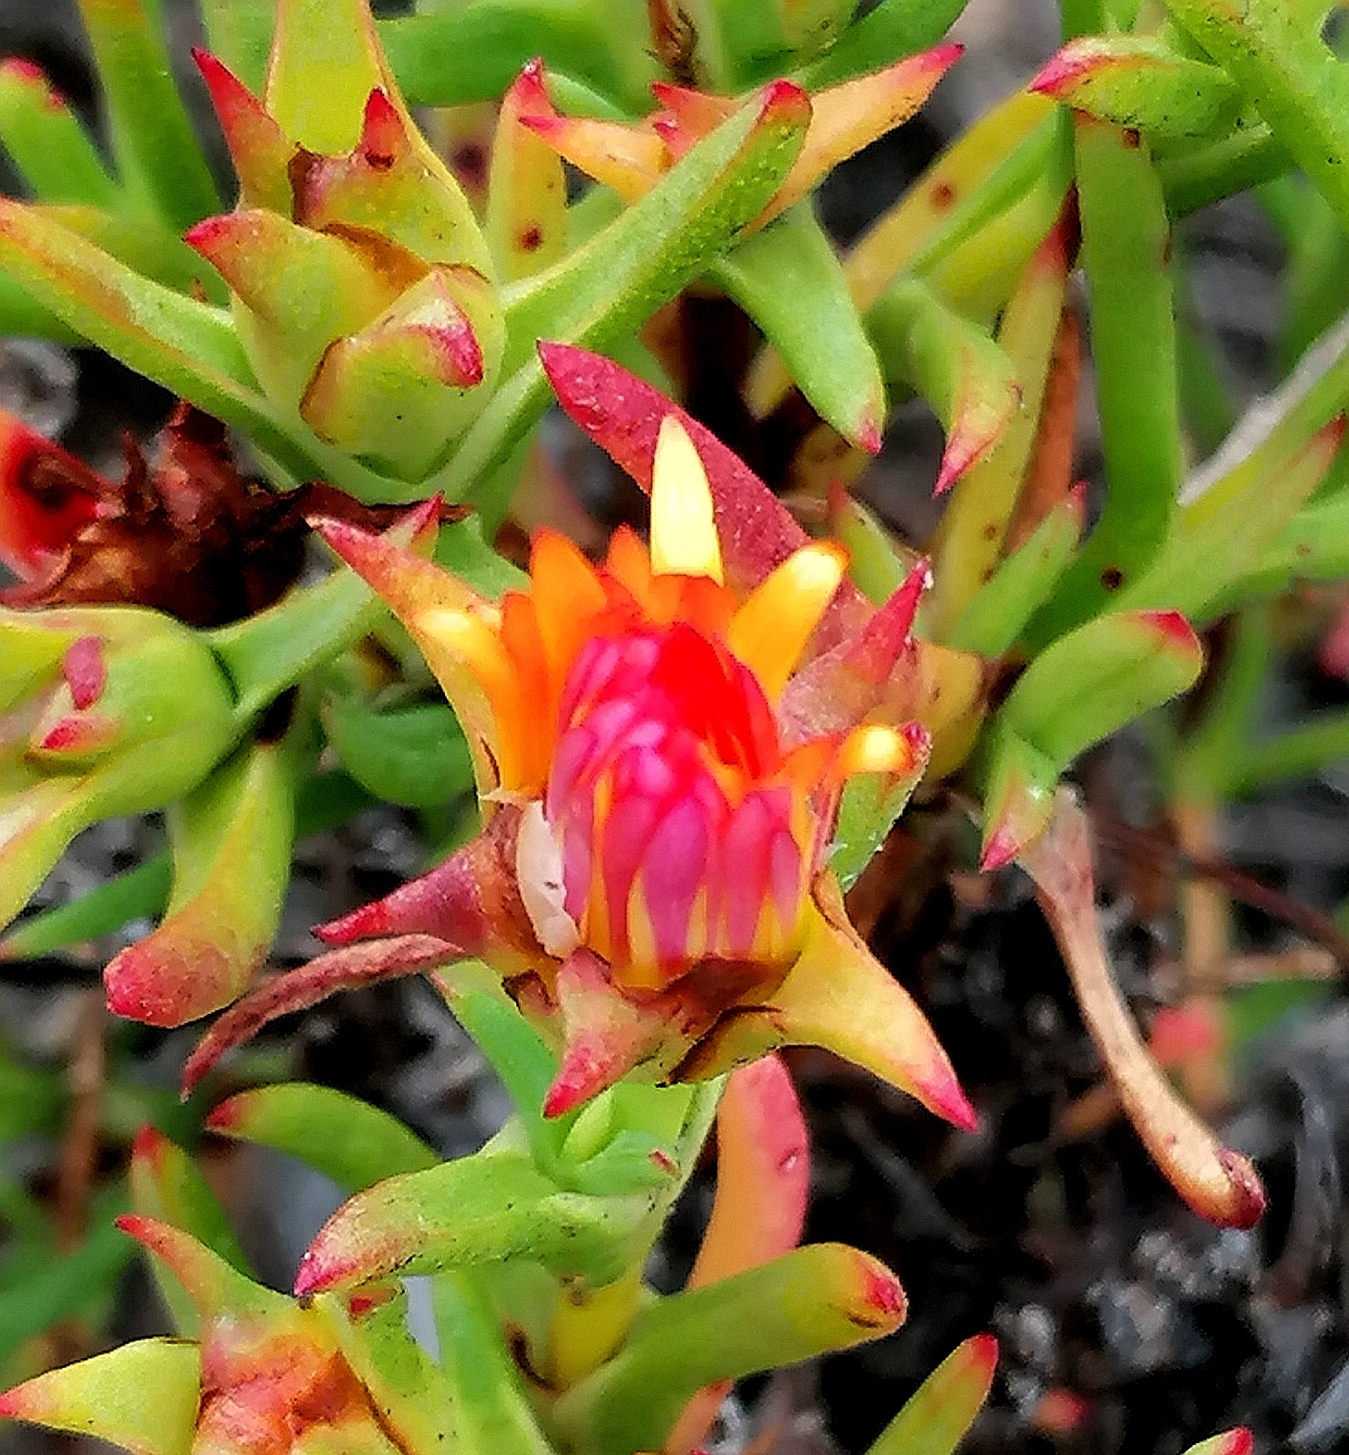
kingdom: Plantae
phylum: Tracheophyta
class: Magnoliopsida
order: Caryophyllales
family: Aizoaceae
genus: Lampranthus
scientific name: Lampranthus bicolor
